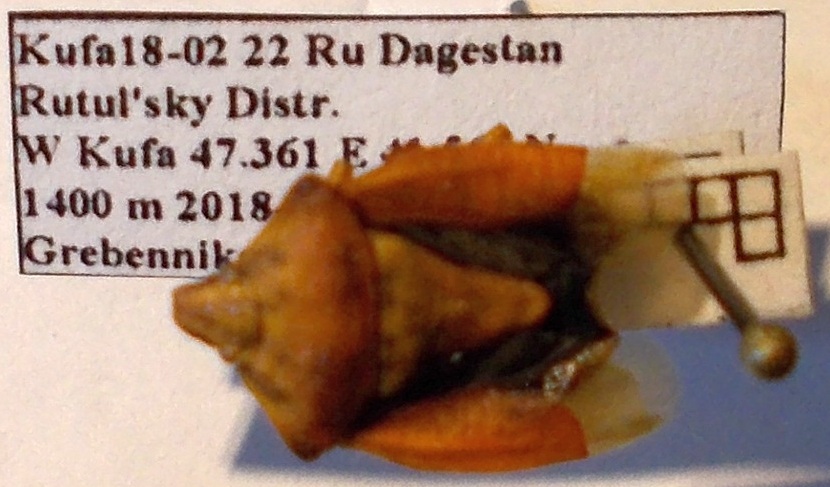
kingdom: Animalia
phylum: Arthropoda
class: Insecta
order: Hemiptera
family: Pentatomidae
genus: Carpocoris
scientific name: Carpocoris purpureipennis
